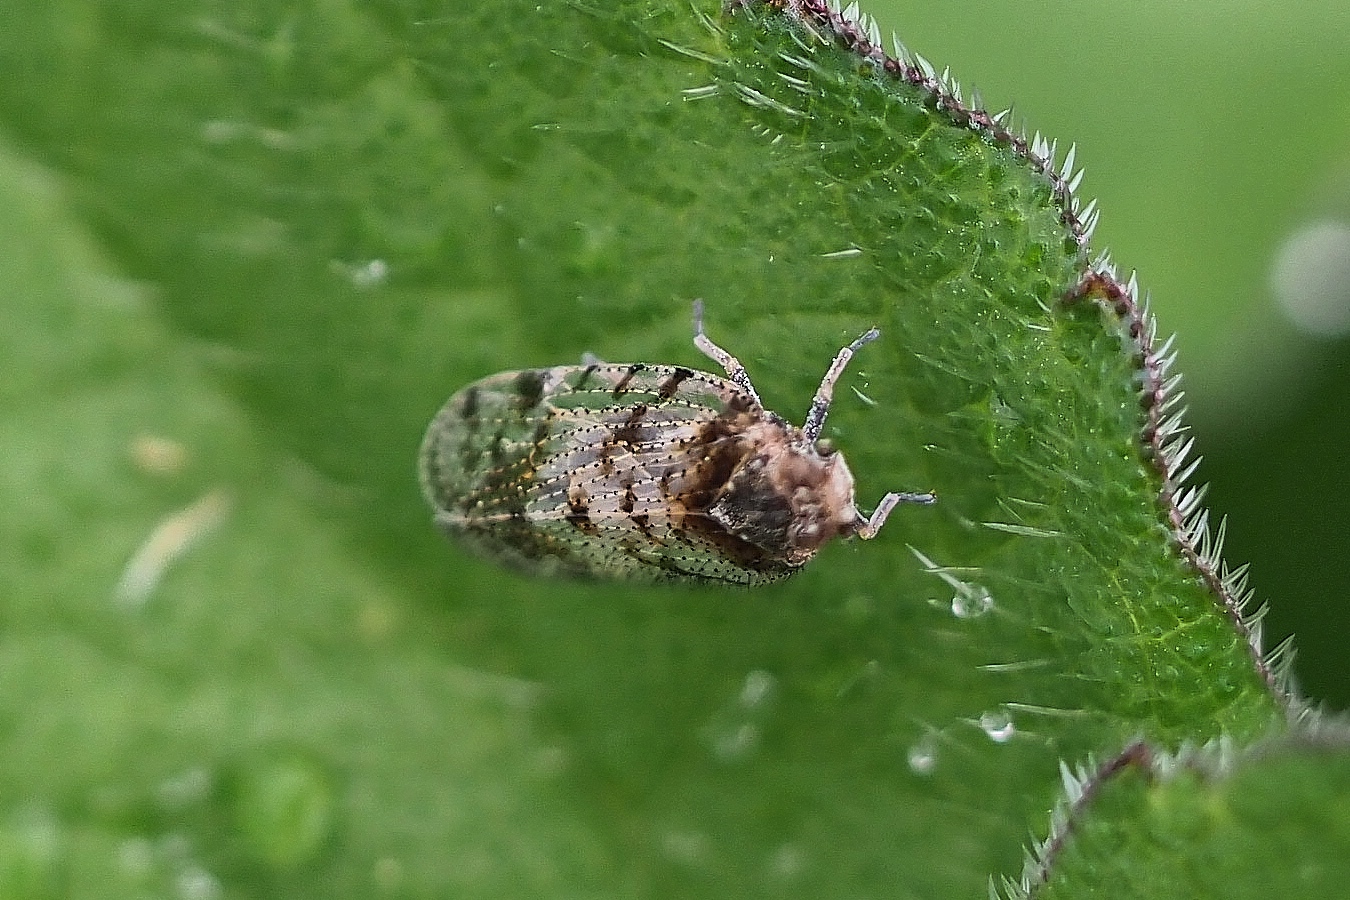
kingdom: Animalia
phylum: Arthropoda
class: Insecta
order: Hemiptera
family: Cixiidae
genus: Tachycixius
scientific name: Tachycixius pilosus
